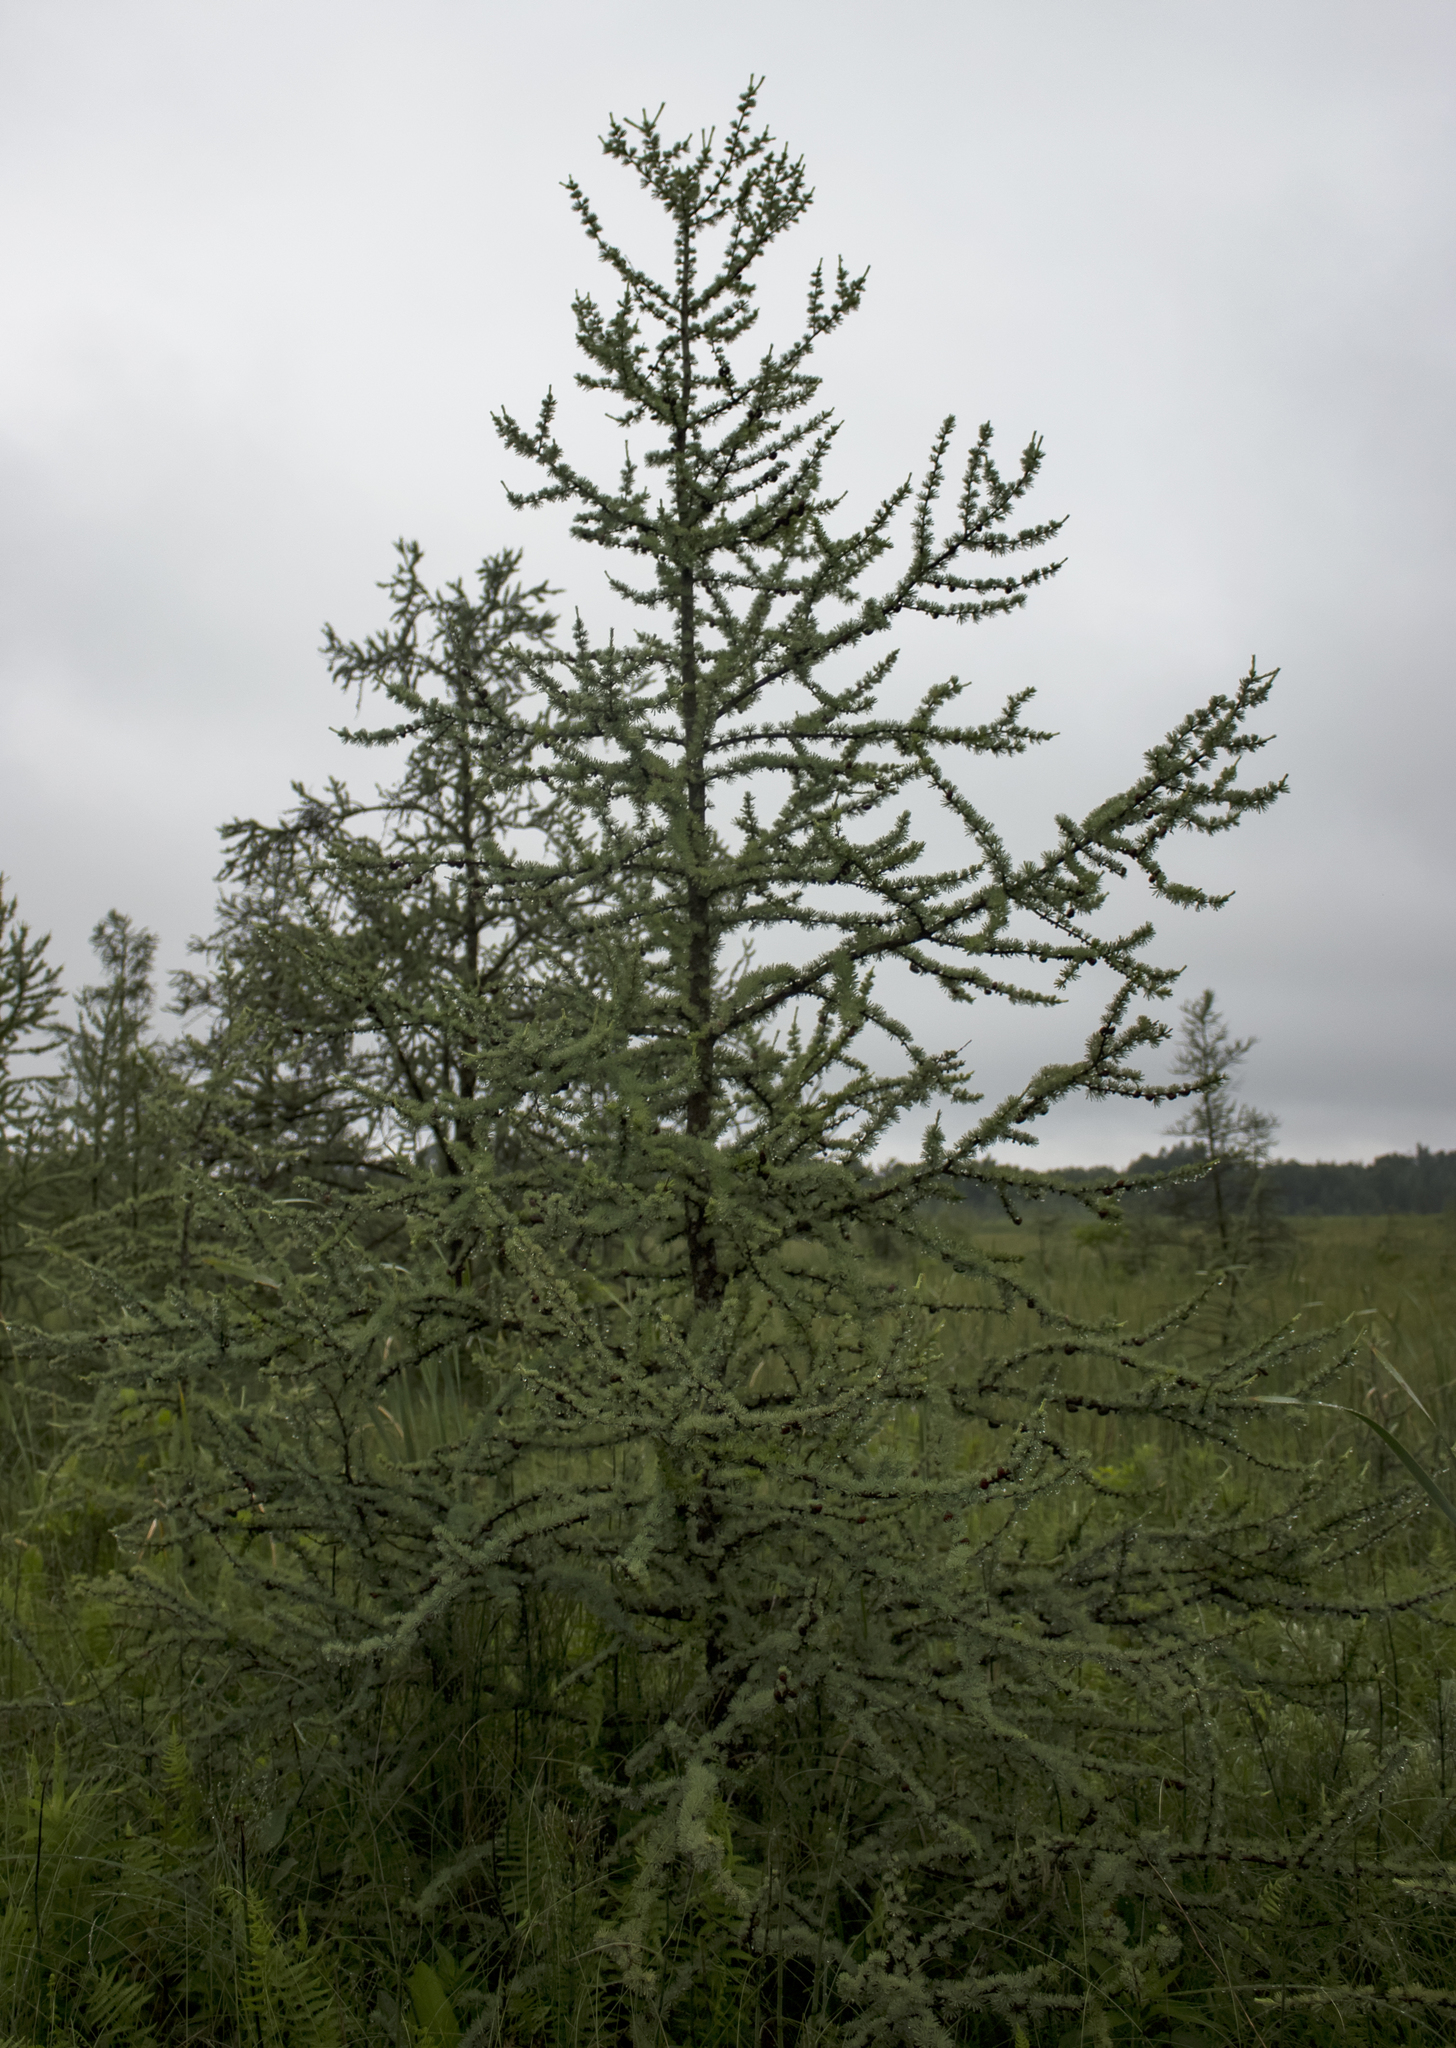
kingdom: Plantae
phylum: Tracheophyta
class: Pinopsida
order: Pinales
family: Pinaceae
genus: Larix
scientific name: Larix laricina
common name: American larch
